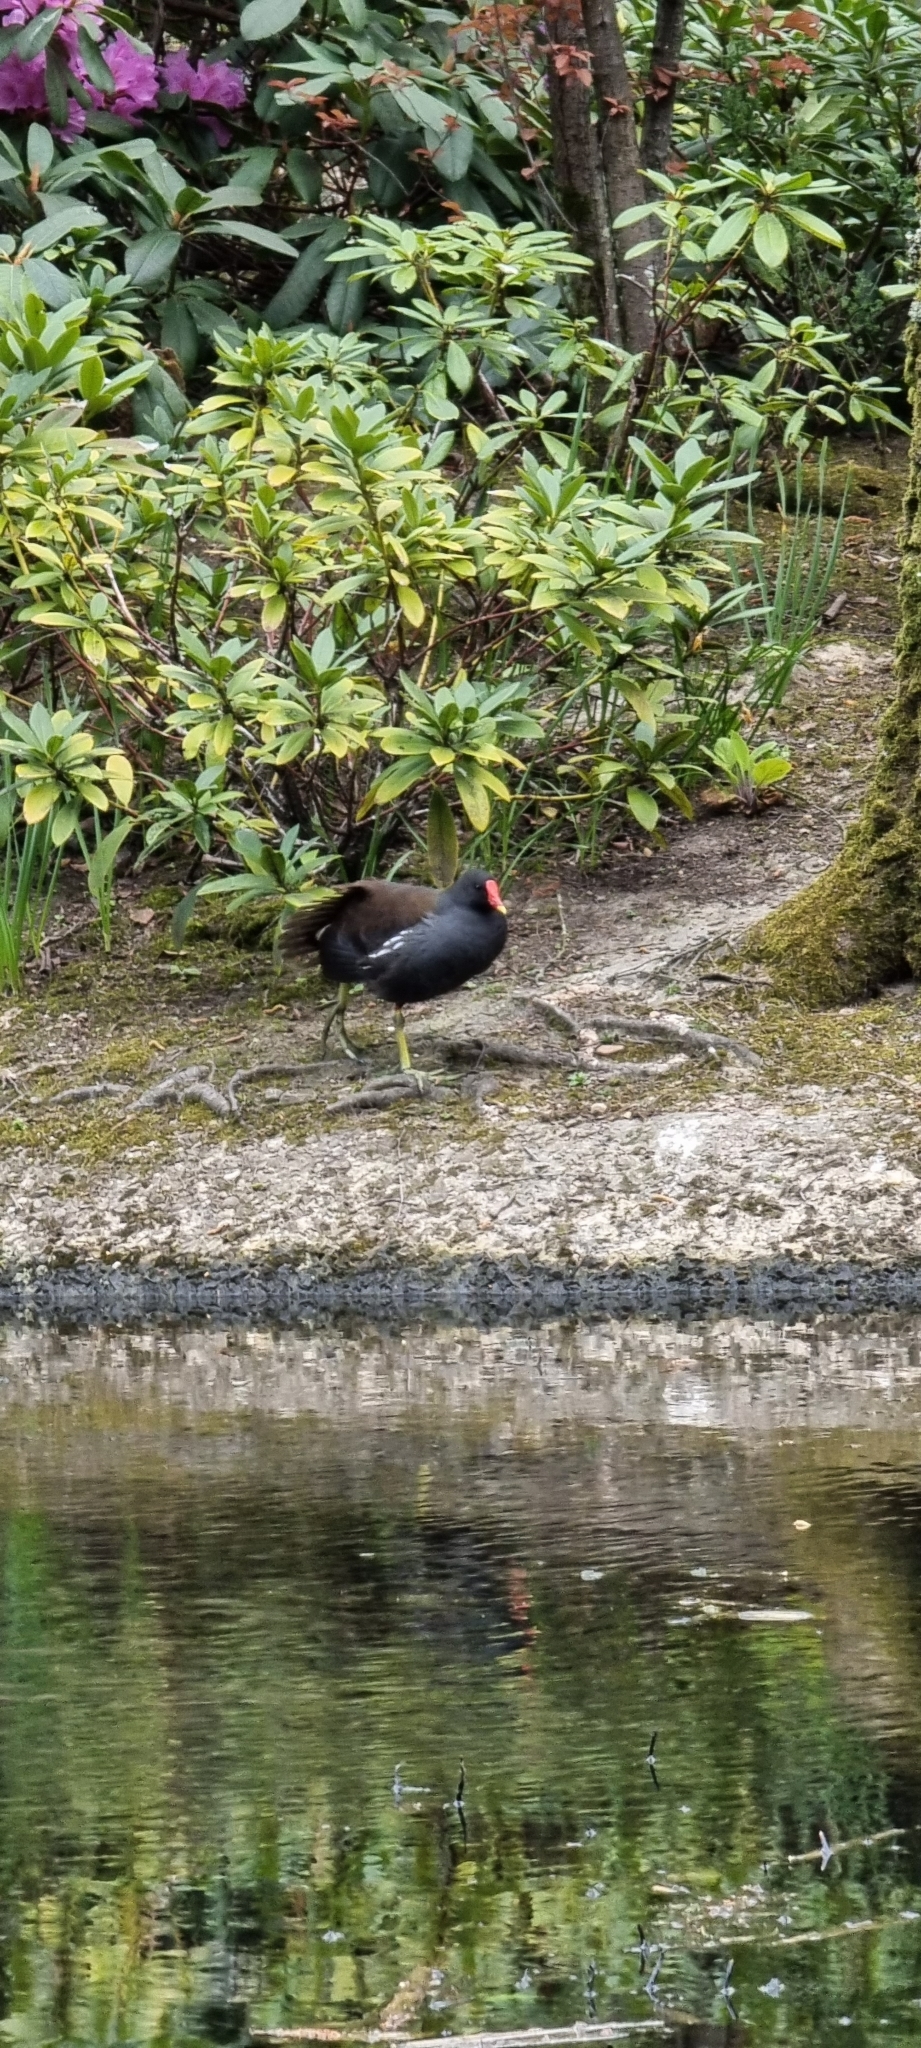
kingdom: Animalia
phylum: Chordata
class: Aves
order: Gruiformes
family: Rallidae
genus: Gallinula
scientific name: Gallinula chloropus
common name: Common moorhen
